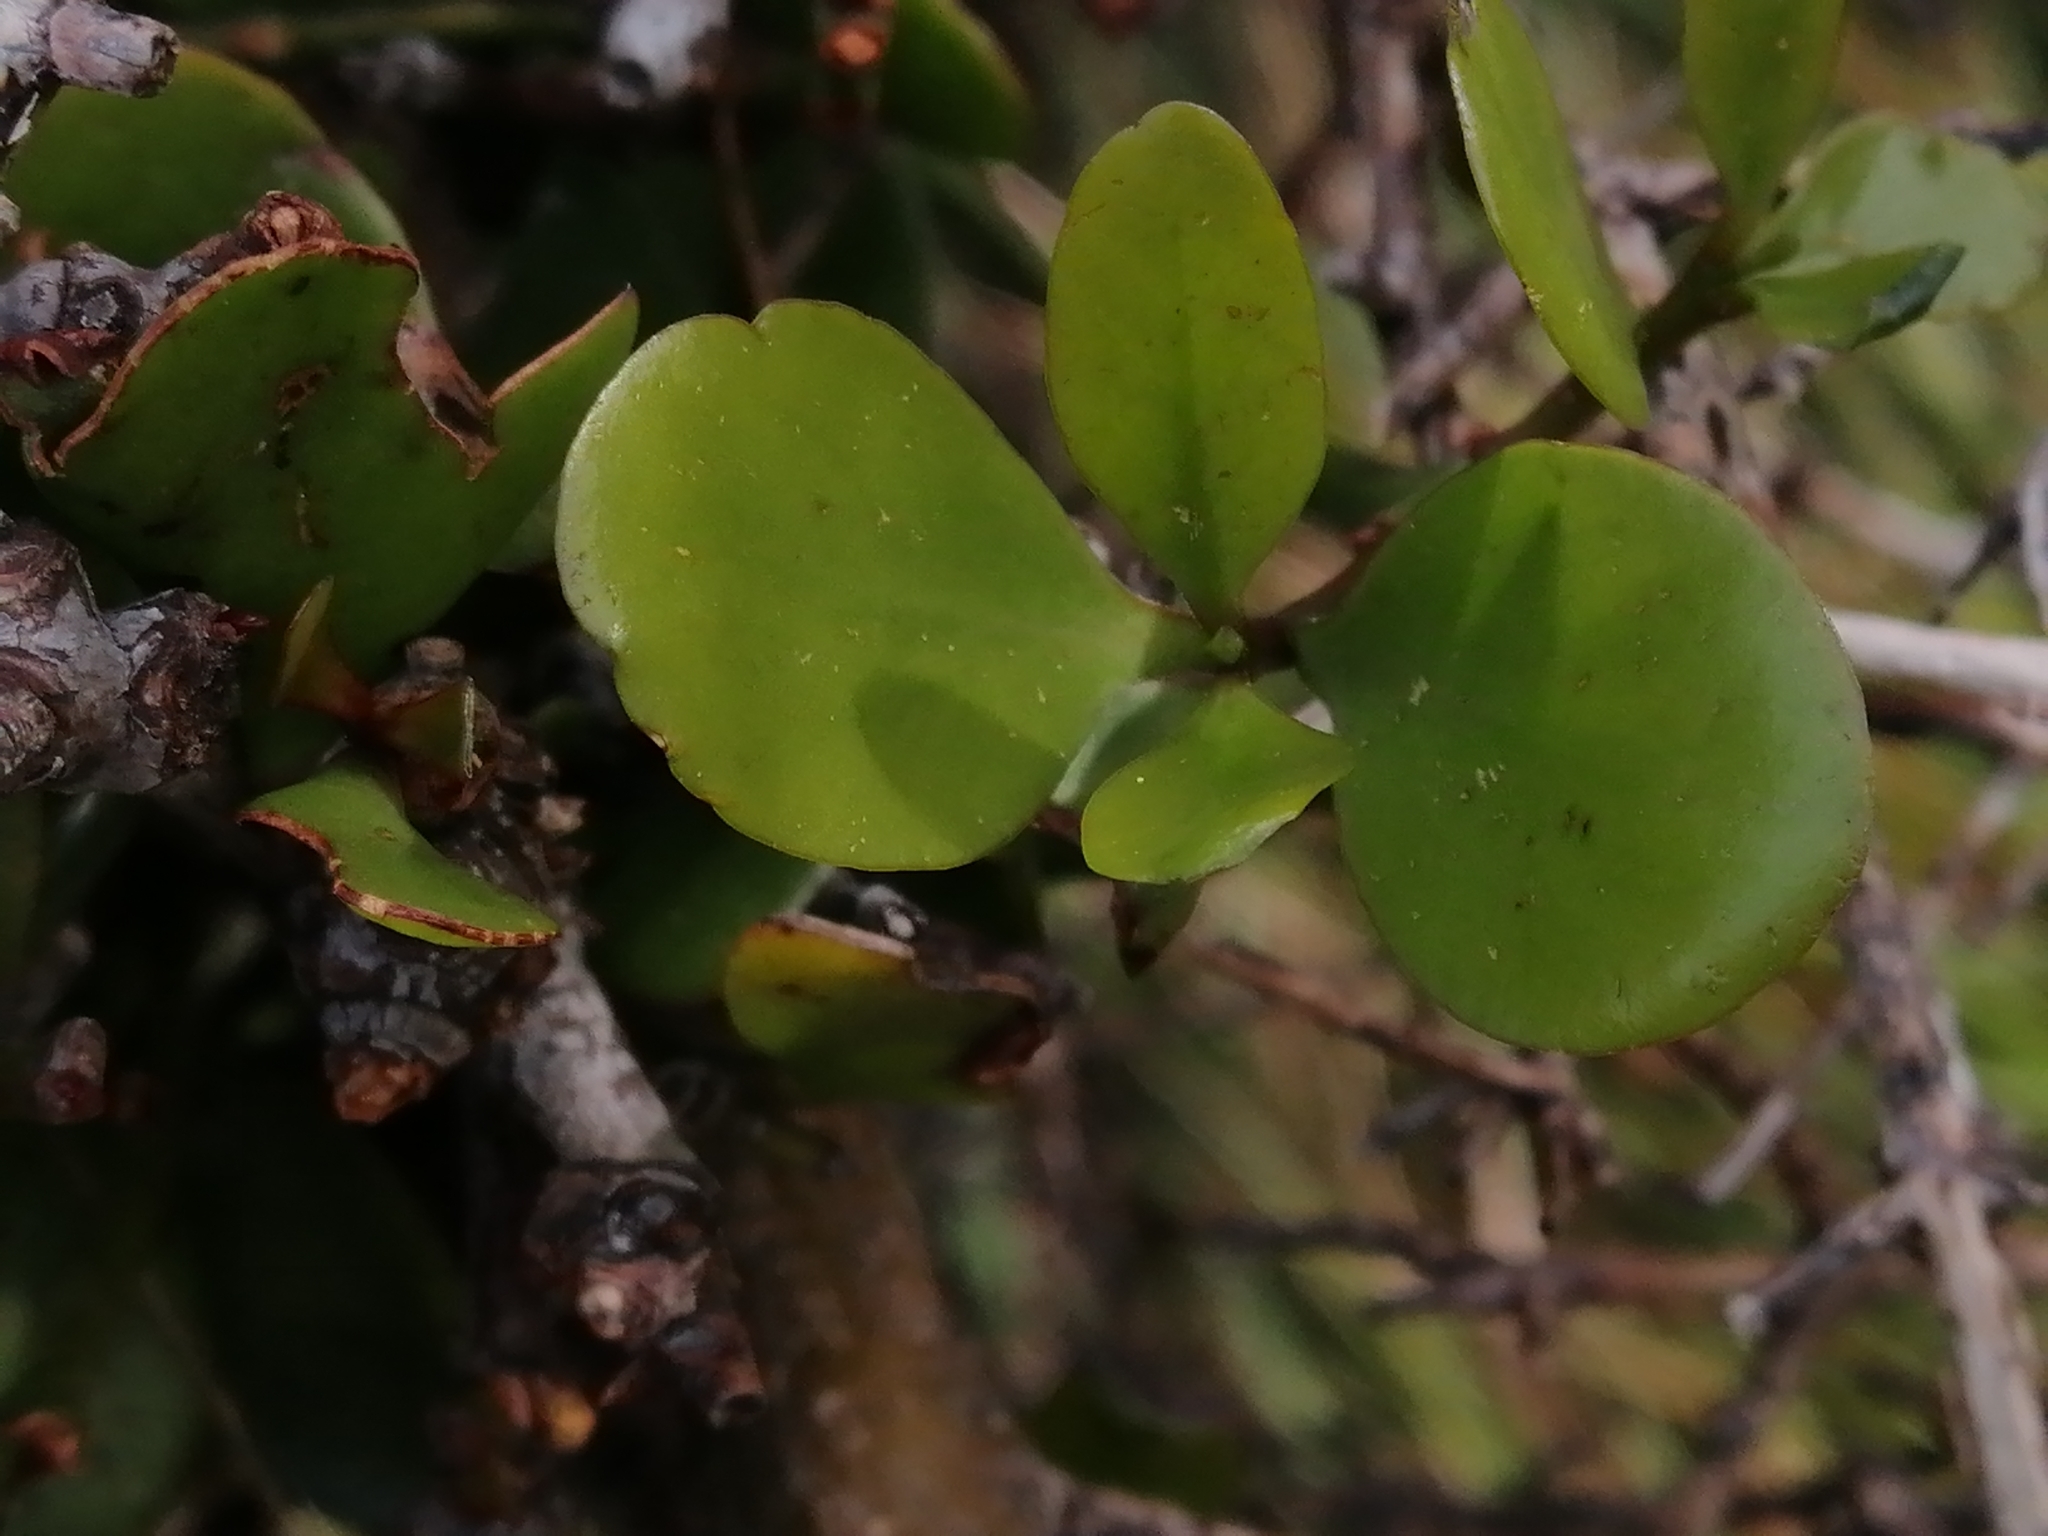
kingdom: Plantae
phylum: Tracheophyta
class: Magnoliopsida
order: Santalales
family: Loranthaceae
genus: Ileostylus
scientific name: Ileostylus micranthus
